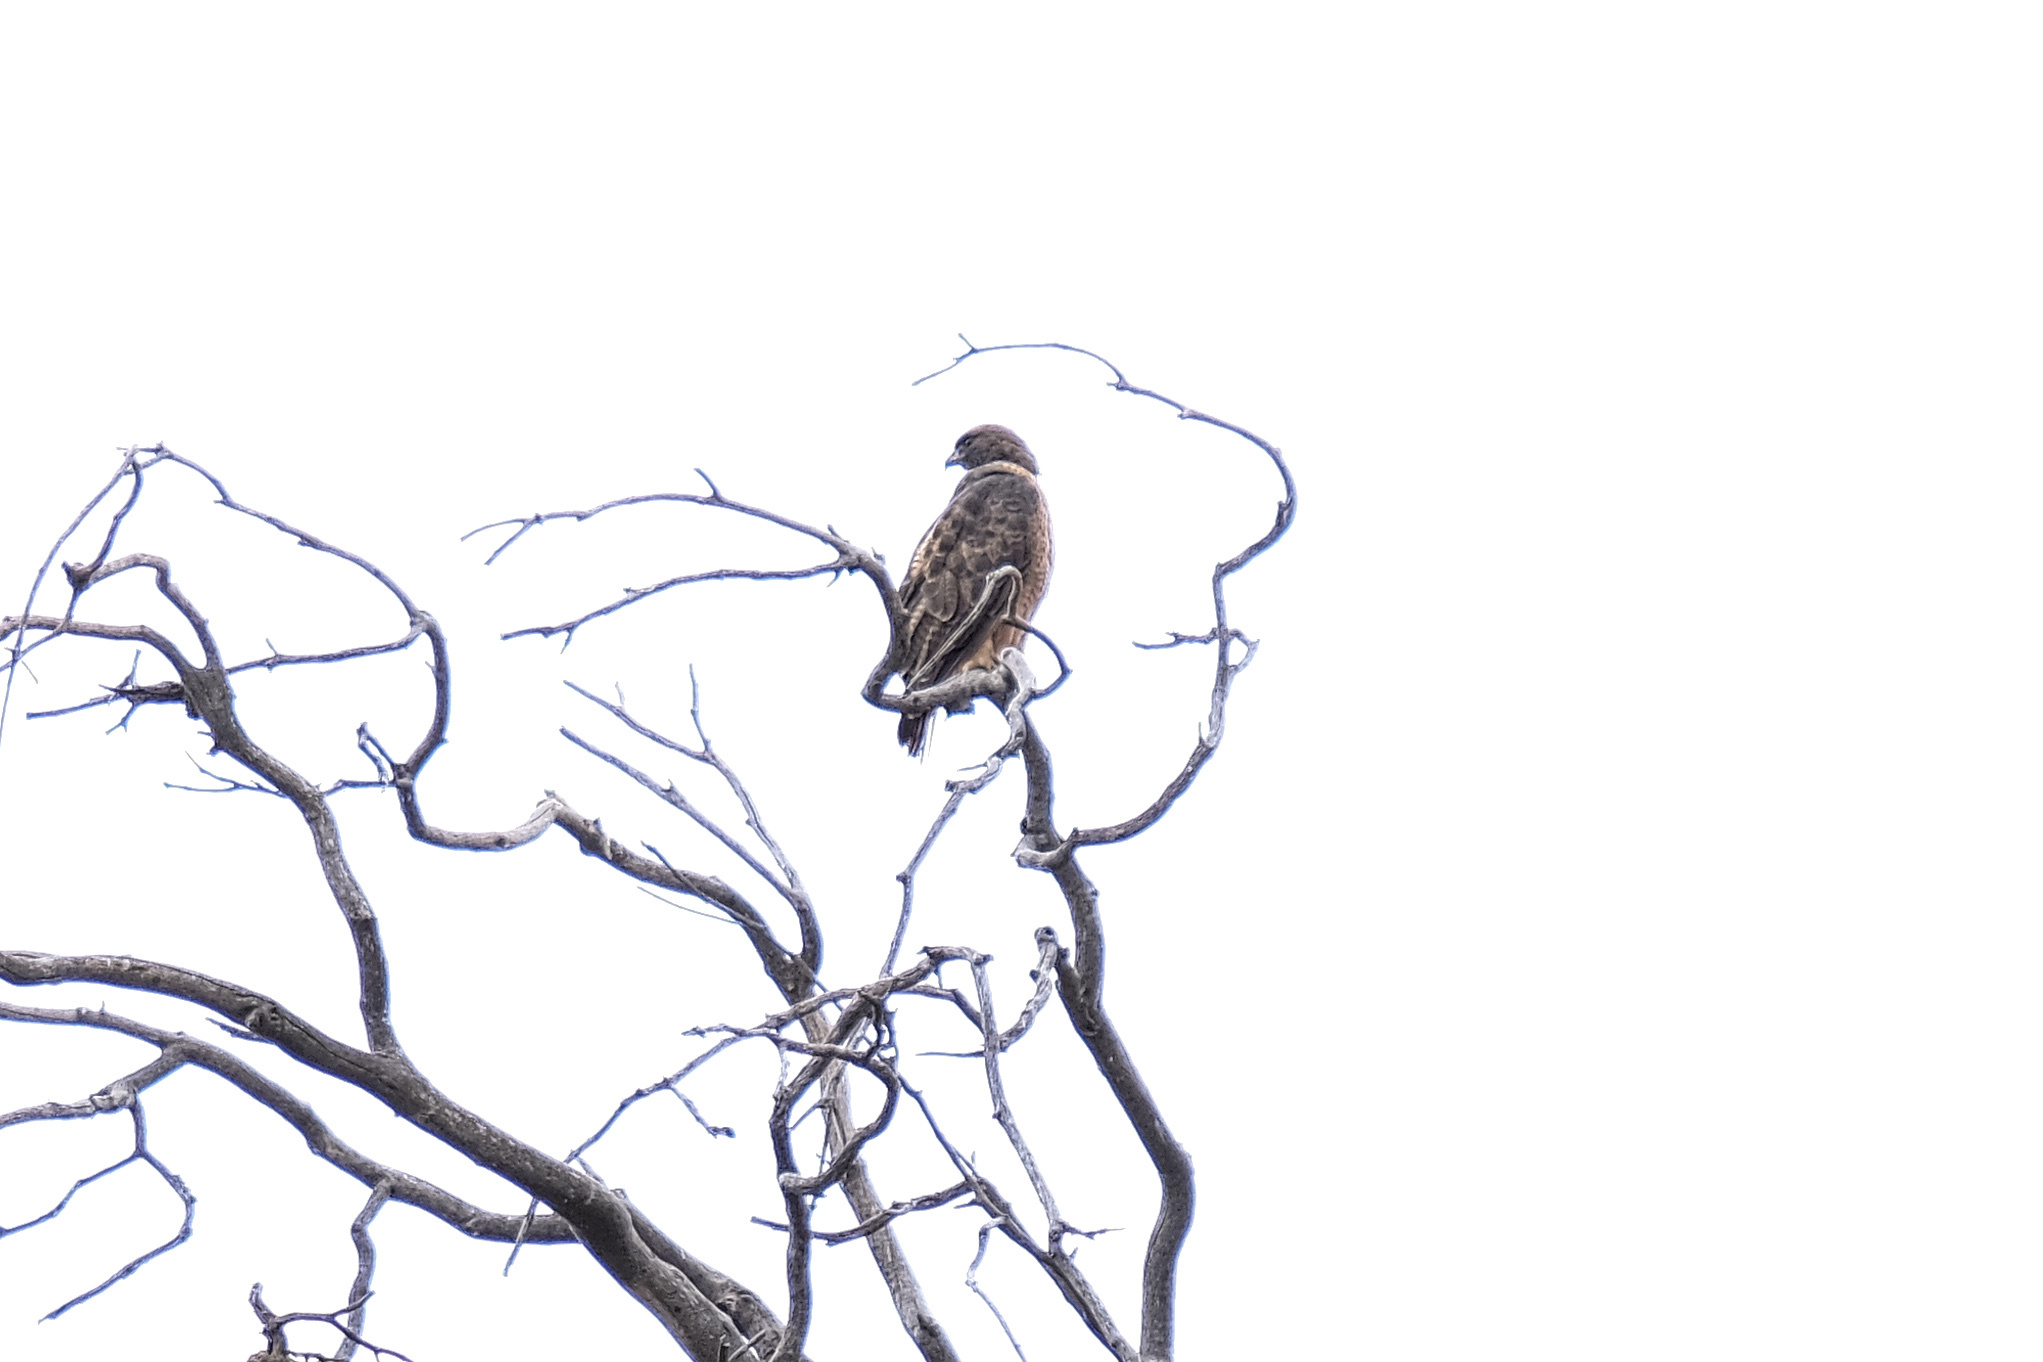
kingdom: Animalia
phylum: Chordata
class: Aves
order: Accipitriformes
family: Accipitridae
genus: Buteo
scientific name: Buteo jamaicensis
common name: Red-tailed hawk
